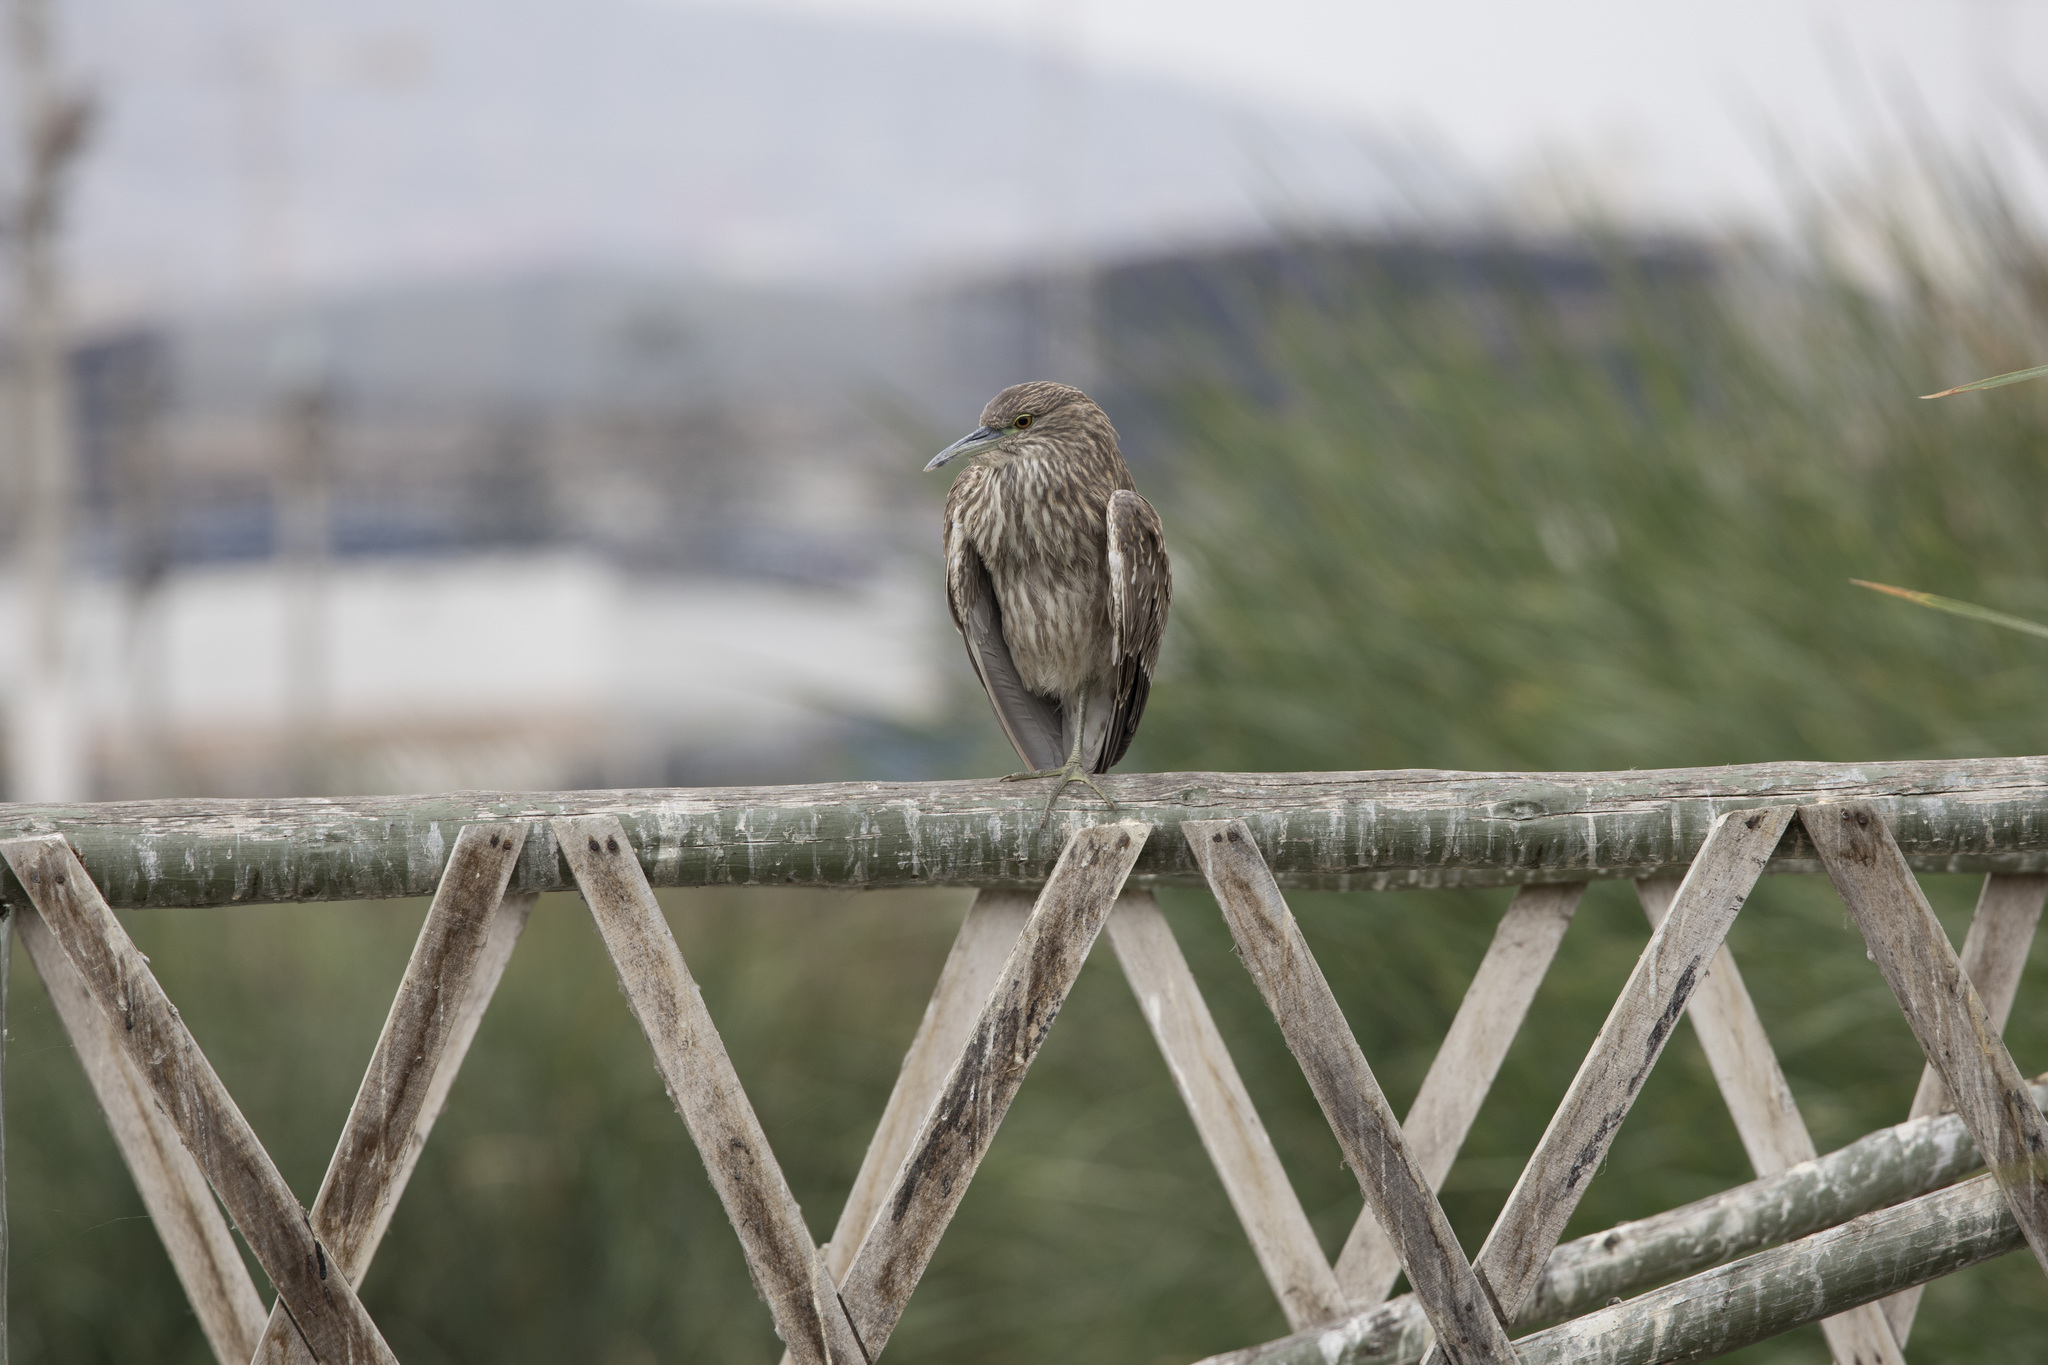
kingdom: Animalia
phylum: Chordata
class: Aves
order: Pelecaniformes
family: Ardeidae
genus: Nycticorax
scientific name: Nycticorax nycticorax
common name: Black-crowned night heron
